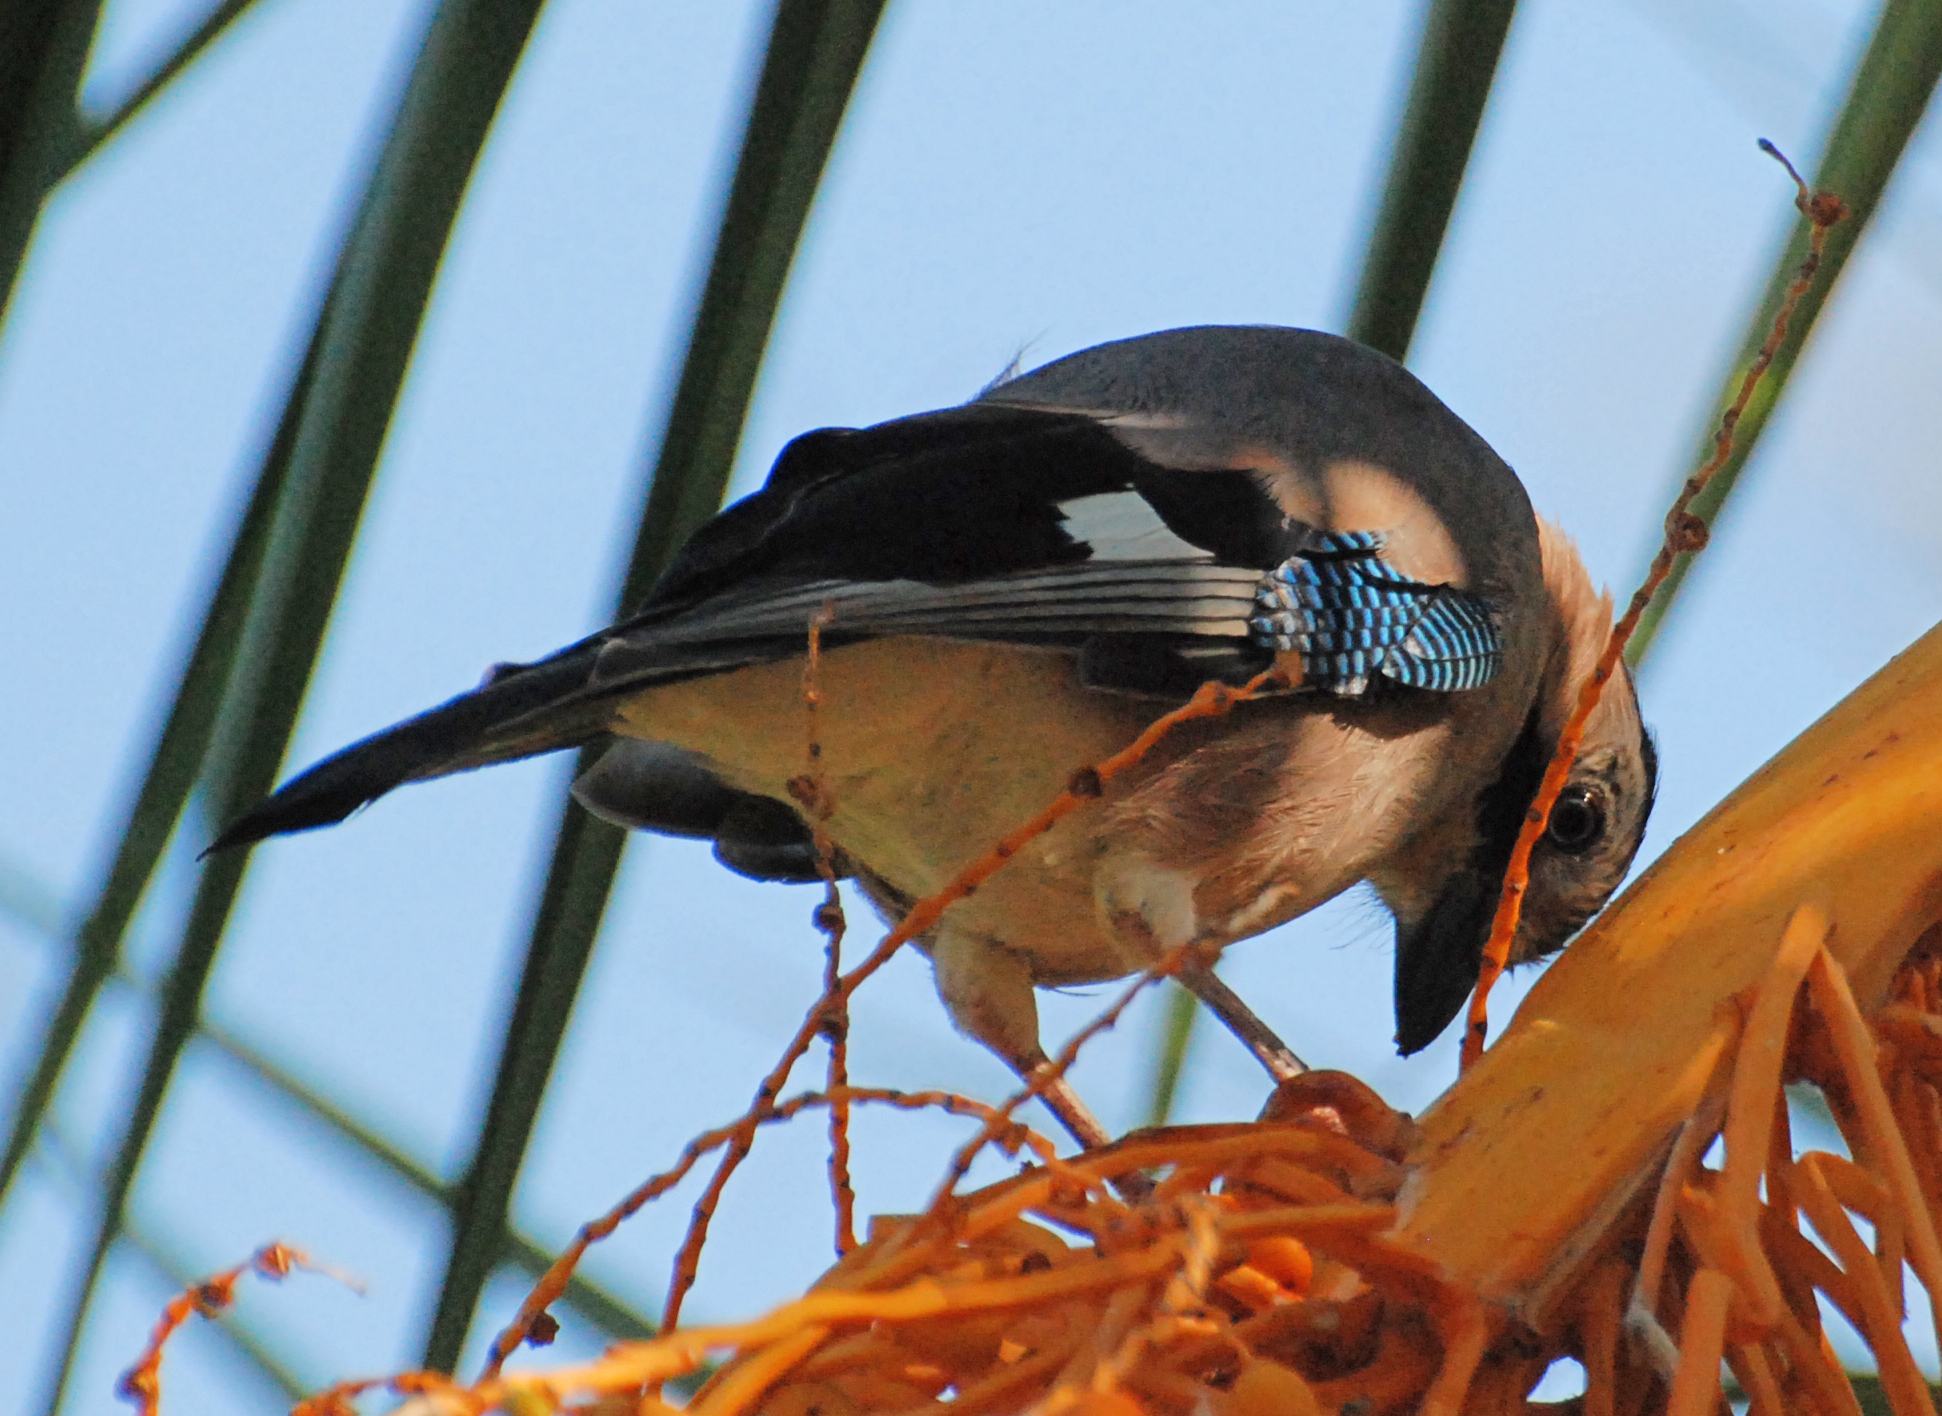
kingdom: Animalia
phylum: Chordata
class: Aves
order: Passeriformes
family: Corvidae
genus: Garrulus
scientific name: Garrulus glandarius
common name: Eurasian jay
